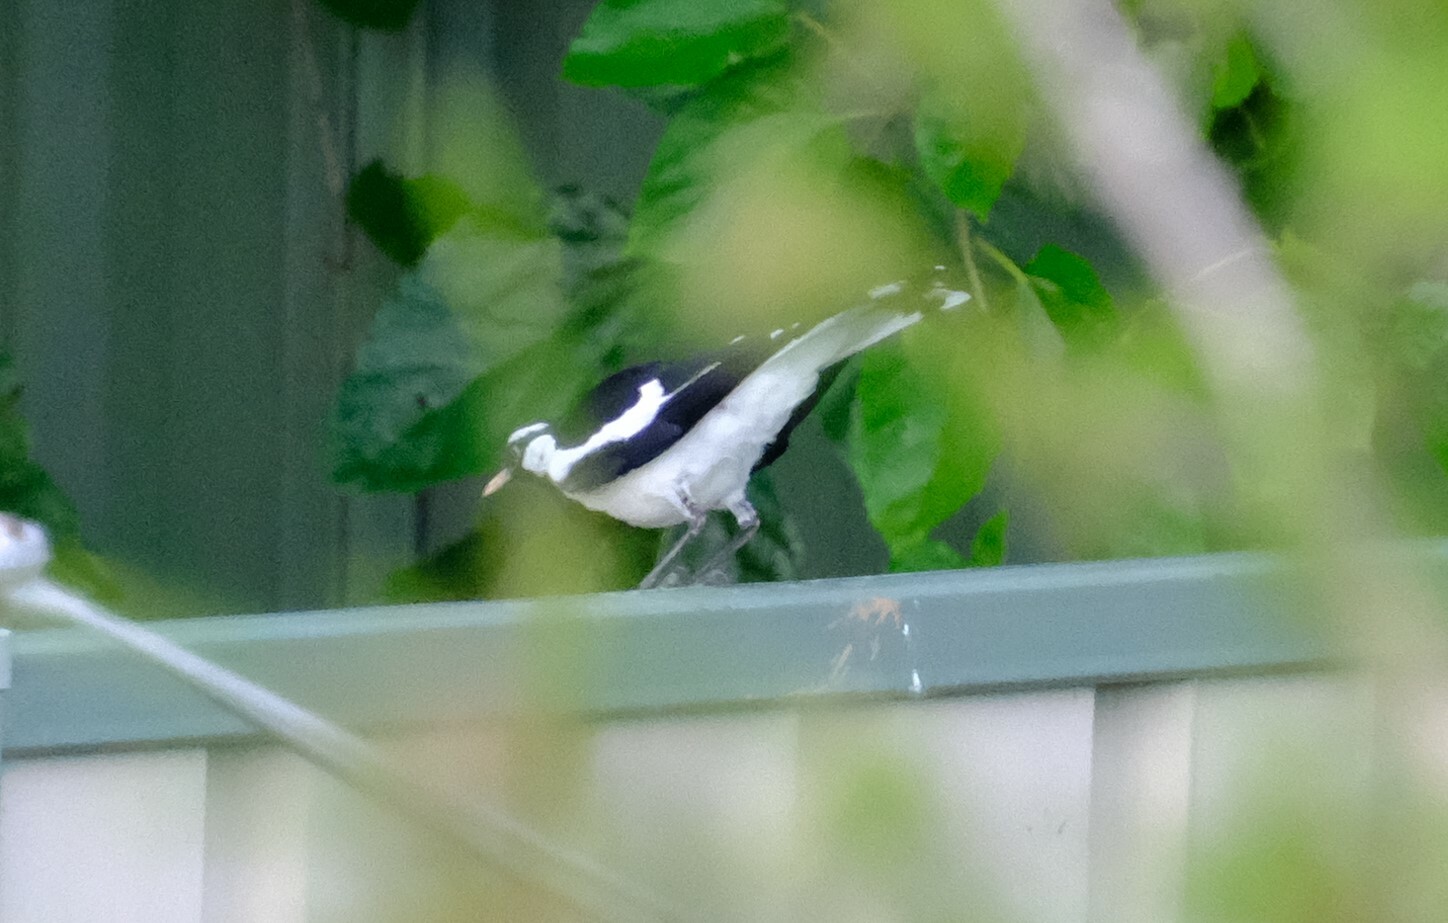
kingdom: Animalia
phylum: Chordata
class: Aves
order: Passeriformes
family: Monarchidae
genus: Grallina
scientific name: Grallina cyanoleuca
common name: Magpie-lark
